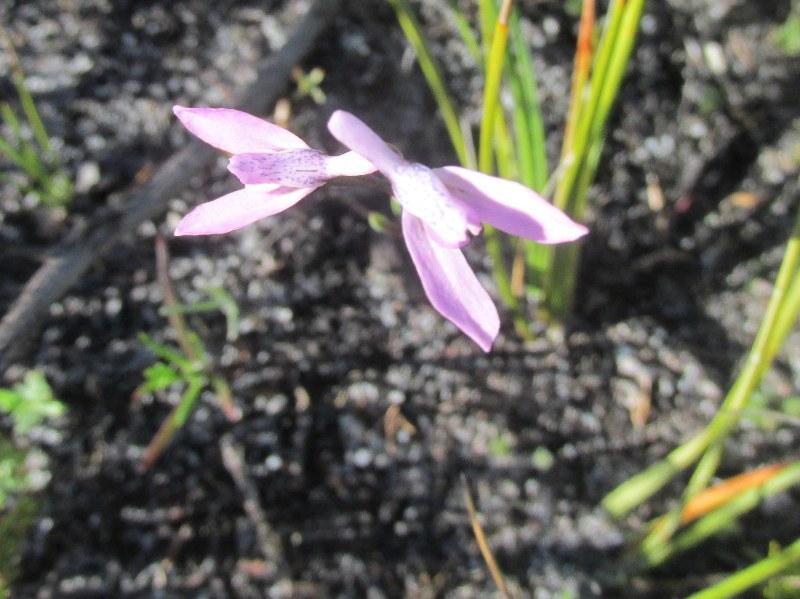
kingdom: Plantae
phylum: Tracheophyta
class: Liliopsida
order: Asparagales
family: Orchidaceae
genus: Disa
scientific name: Disa obliqua
